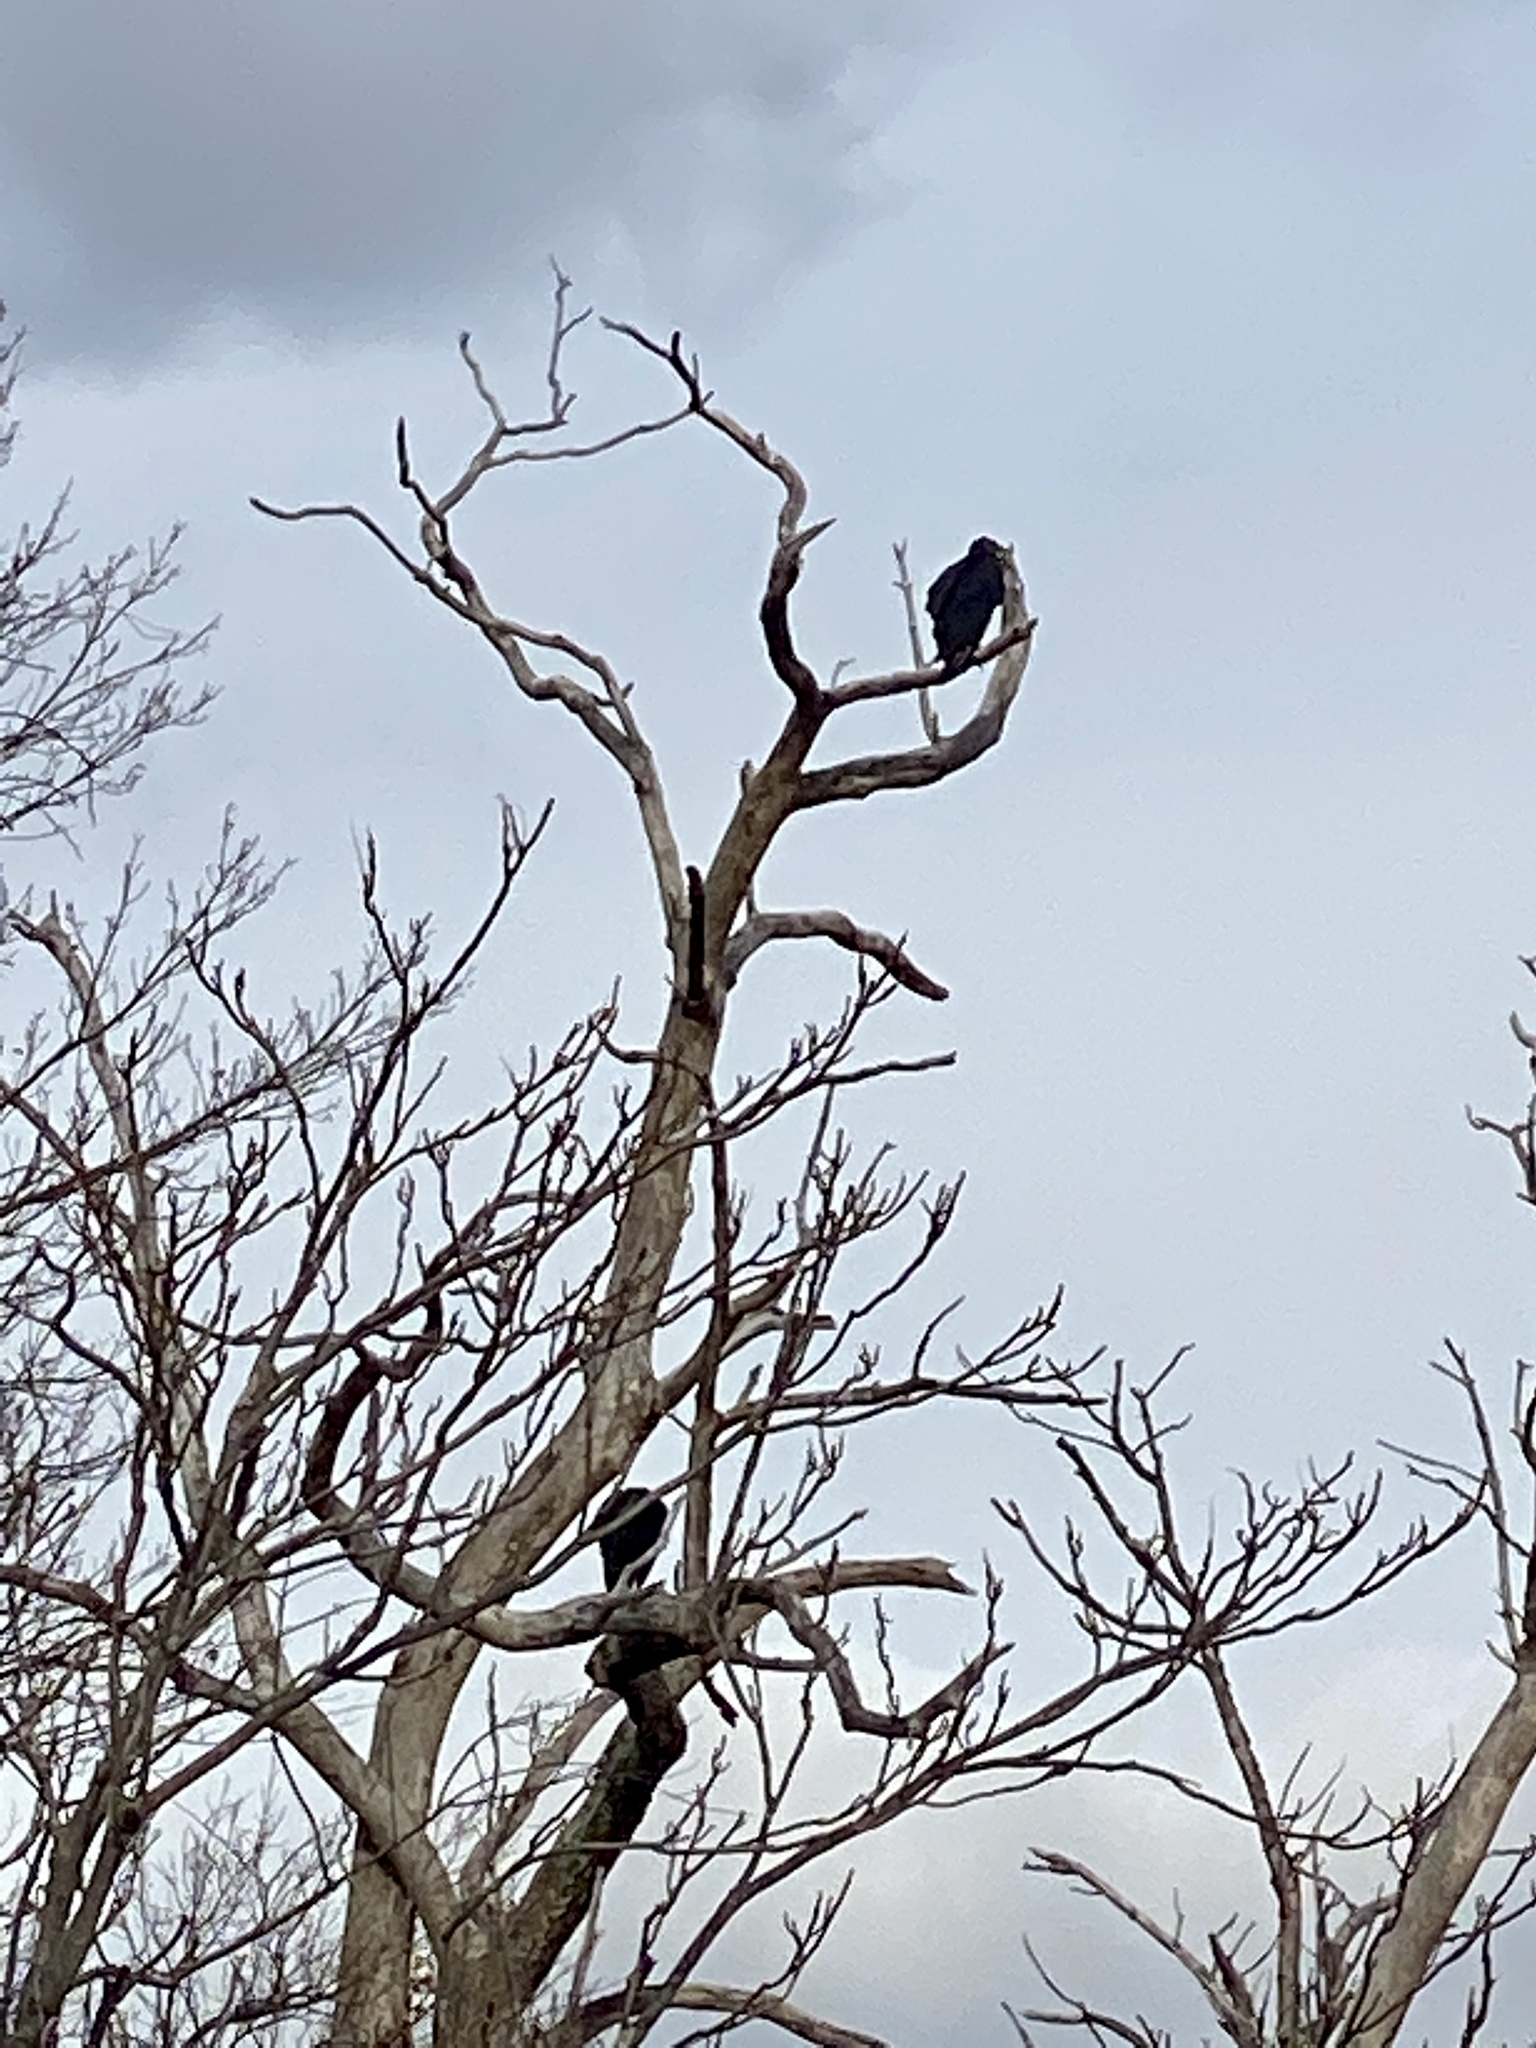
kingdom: Animalia
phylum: Chordata
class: Aves
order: Accipitriformes
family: Cathartidae
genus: Coragyps
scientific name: Coragyps atratus
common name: Black vulture
